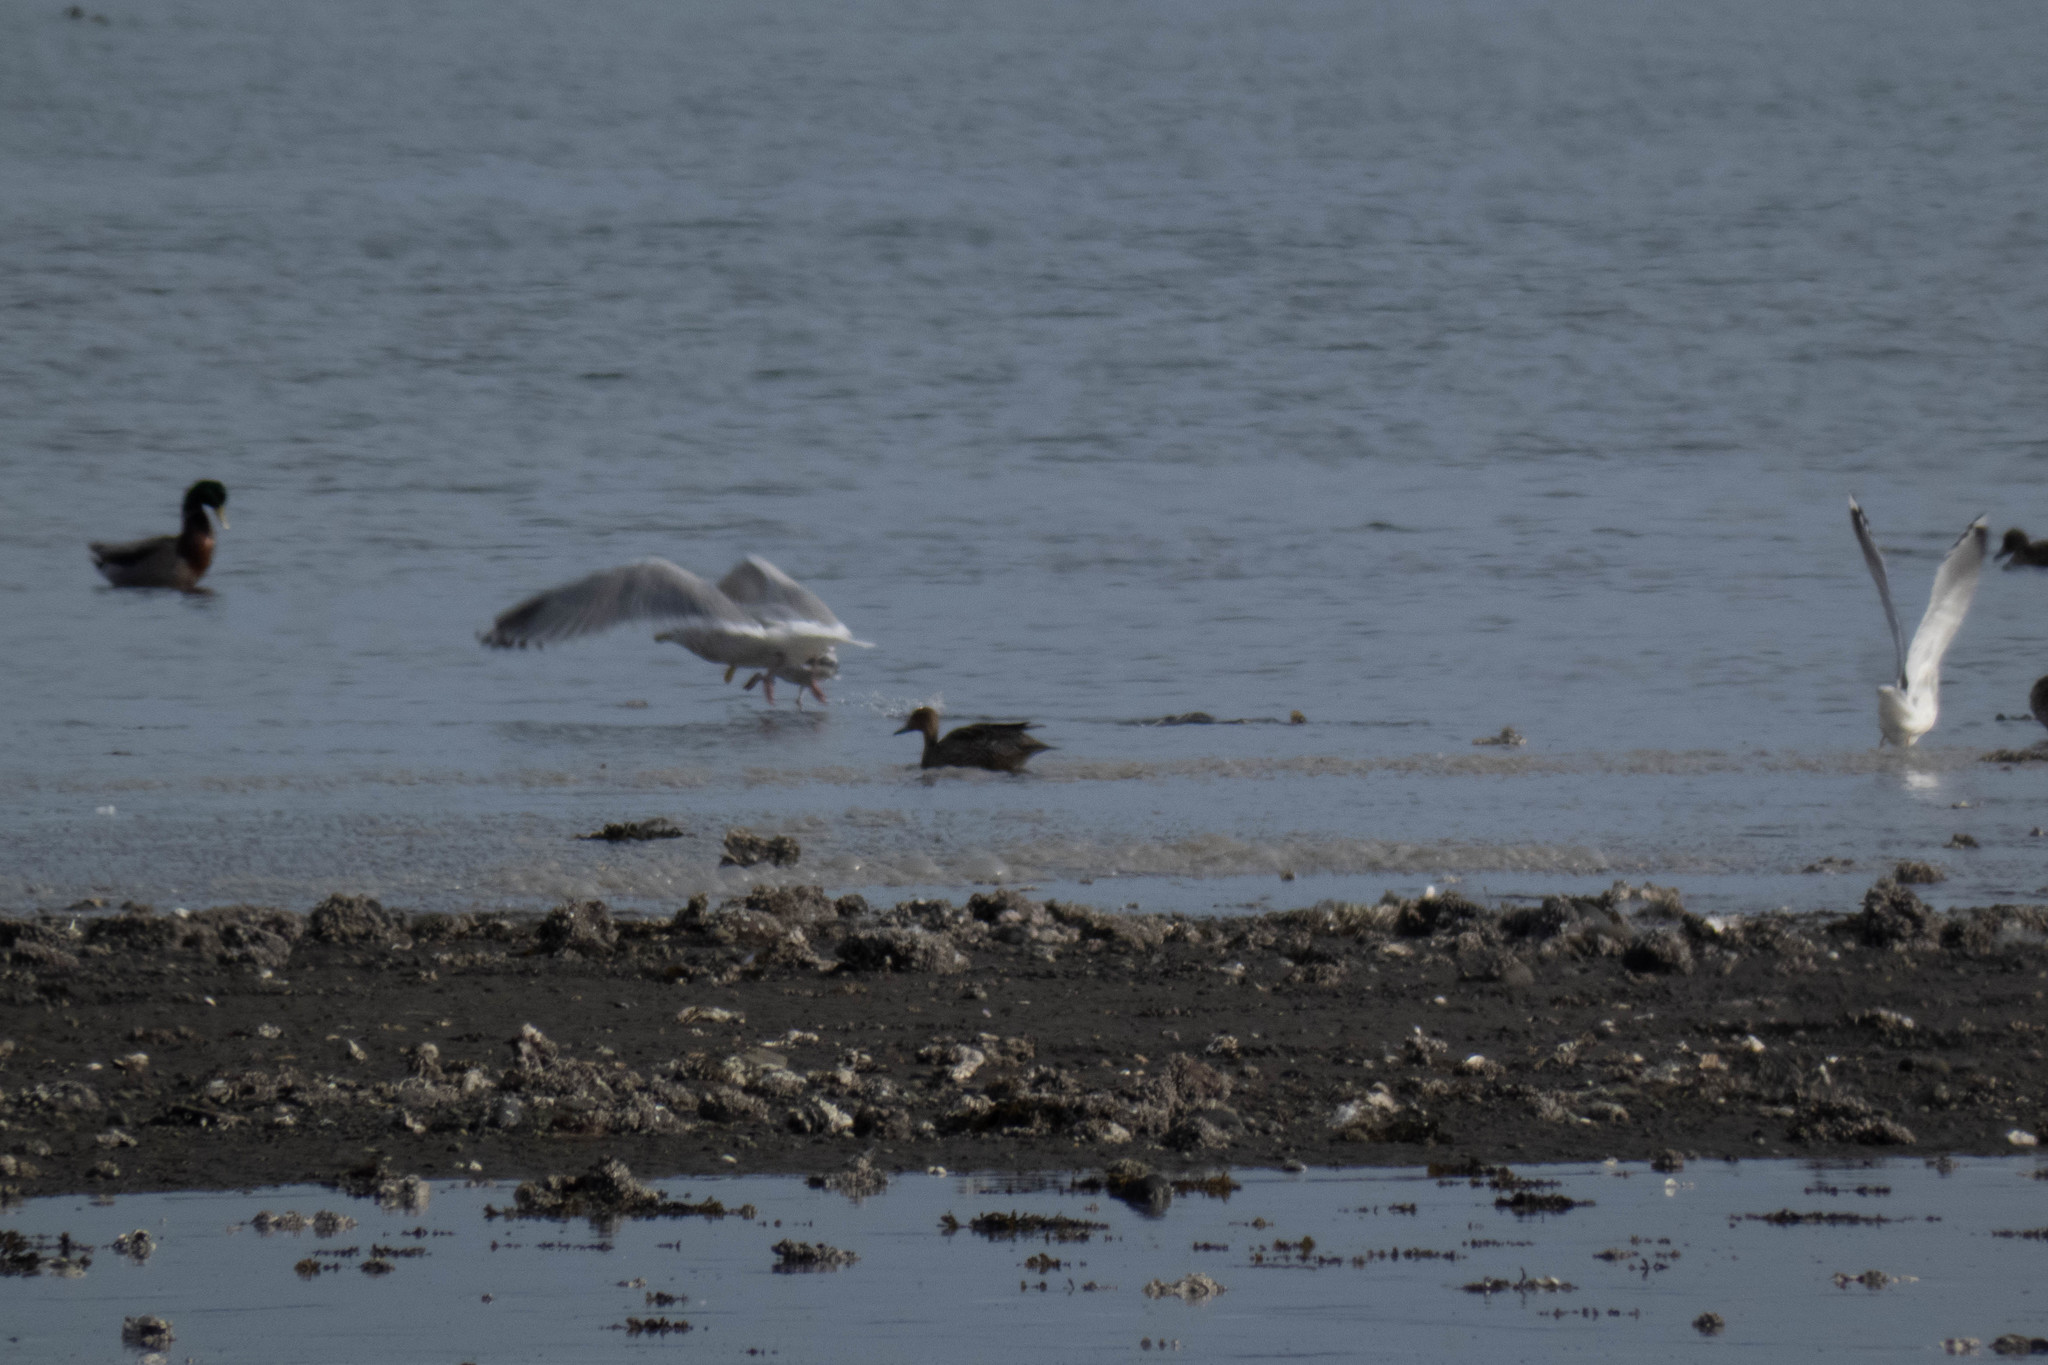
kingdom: Animalia
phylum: Chordata
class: Aves
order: Anseriformes
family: Anatidae
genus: Anas
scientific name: Anas acuta
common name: Northern pintail
